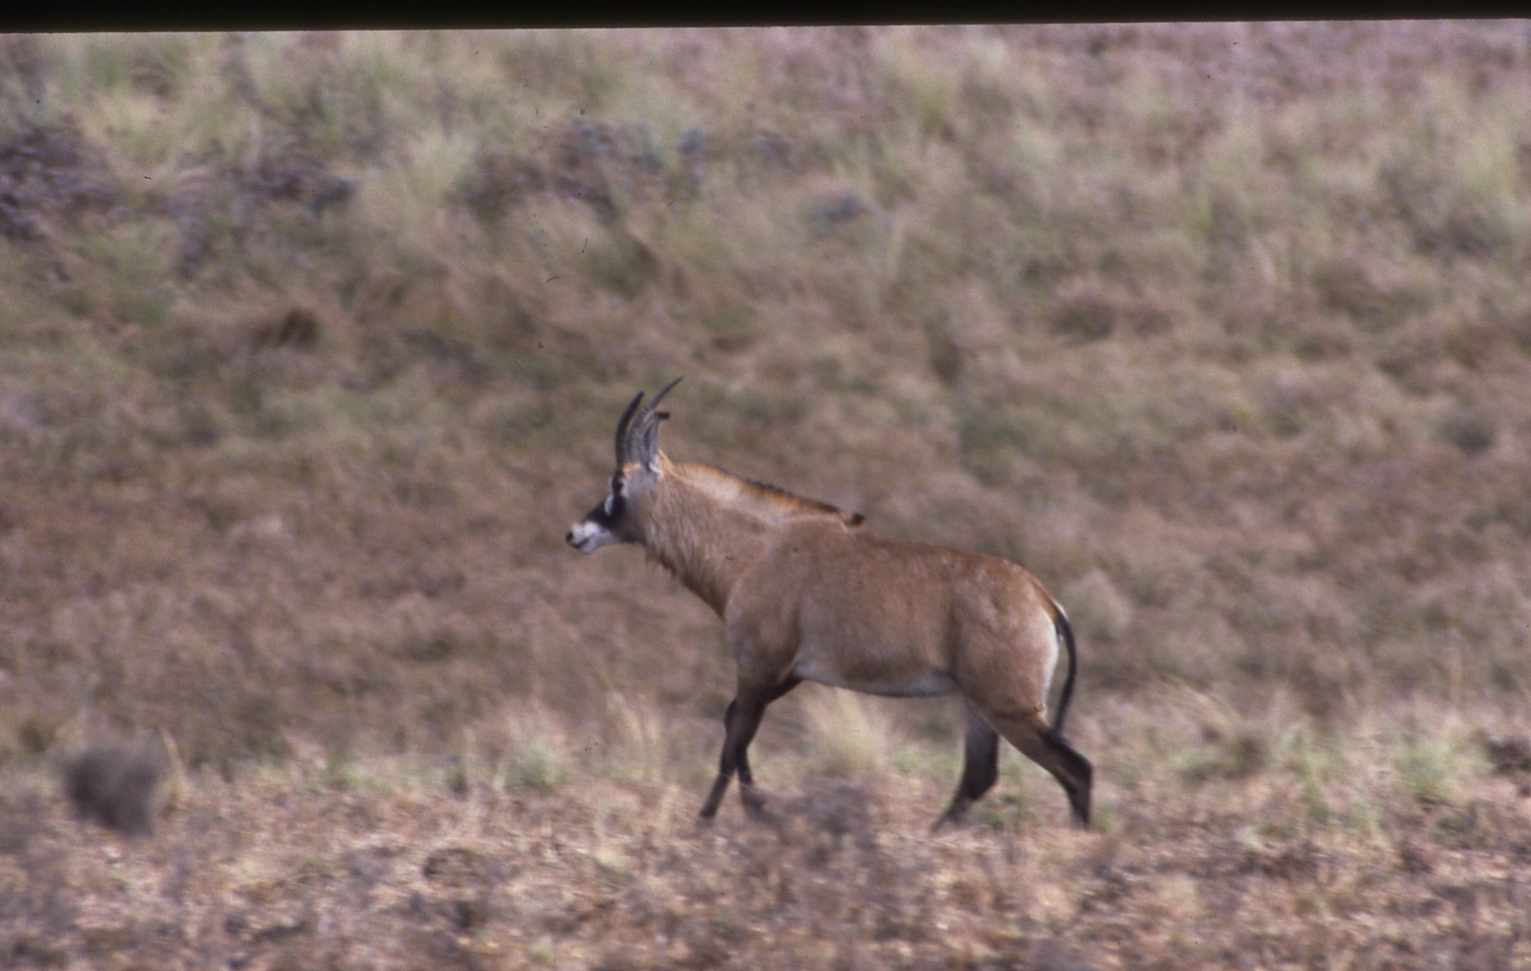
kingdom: Animalia
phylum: Chordata
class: Mammalia
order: Artiodactyla
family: Bovidae
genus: Hippotragus
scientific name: Hippotragus equinus
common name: Roan antelope
